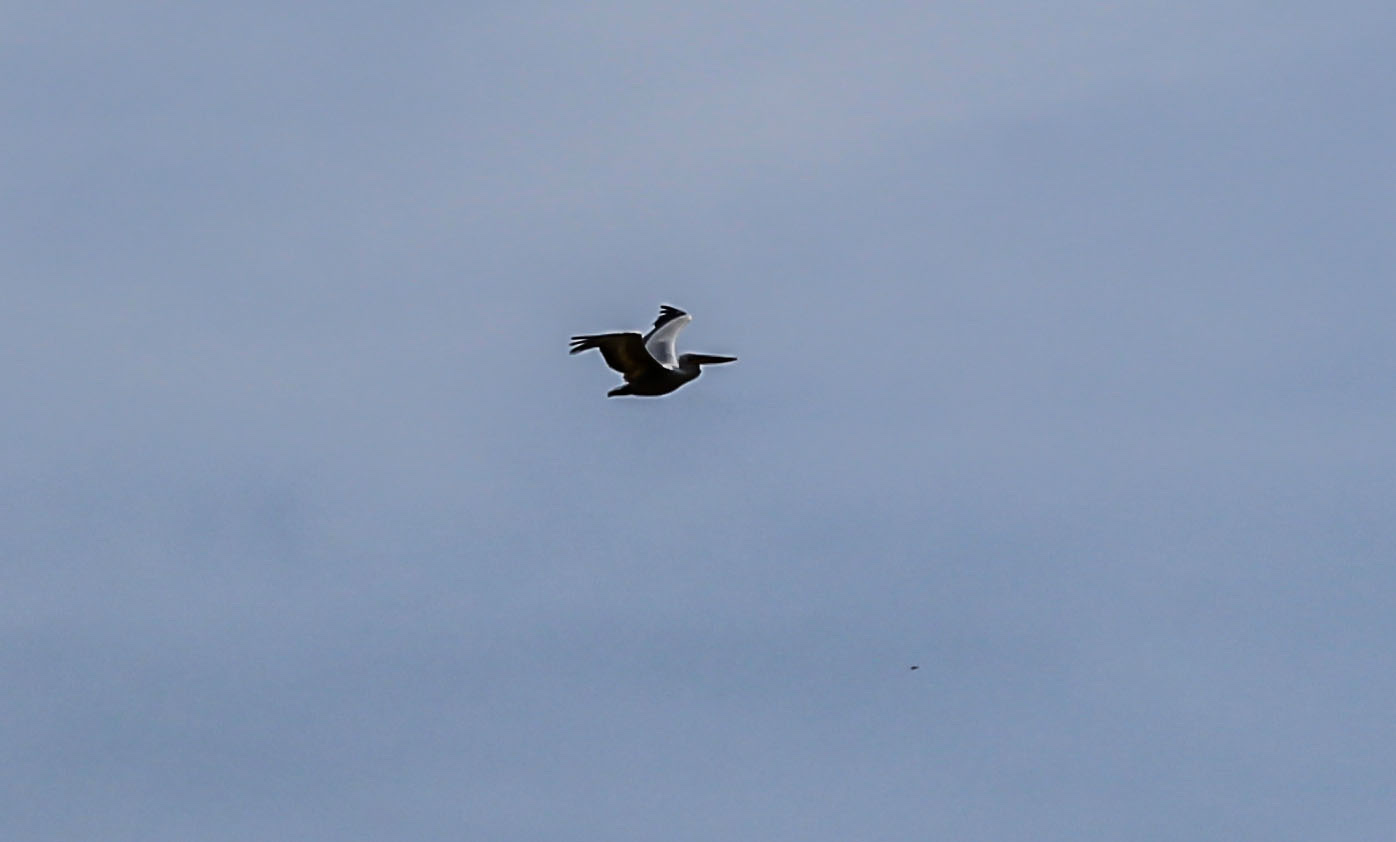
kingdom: Animalia
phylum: Chordata
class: Aves
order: Pelecaniformes
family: Pelecanidae
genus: Pelecanus
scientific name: Pelecanus crispus
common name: Dalmatian pelican
